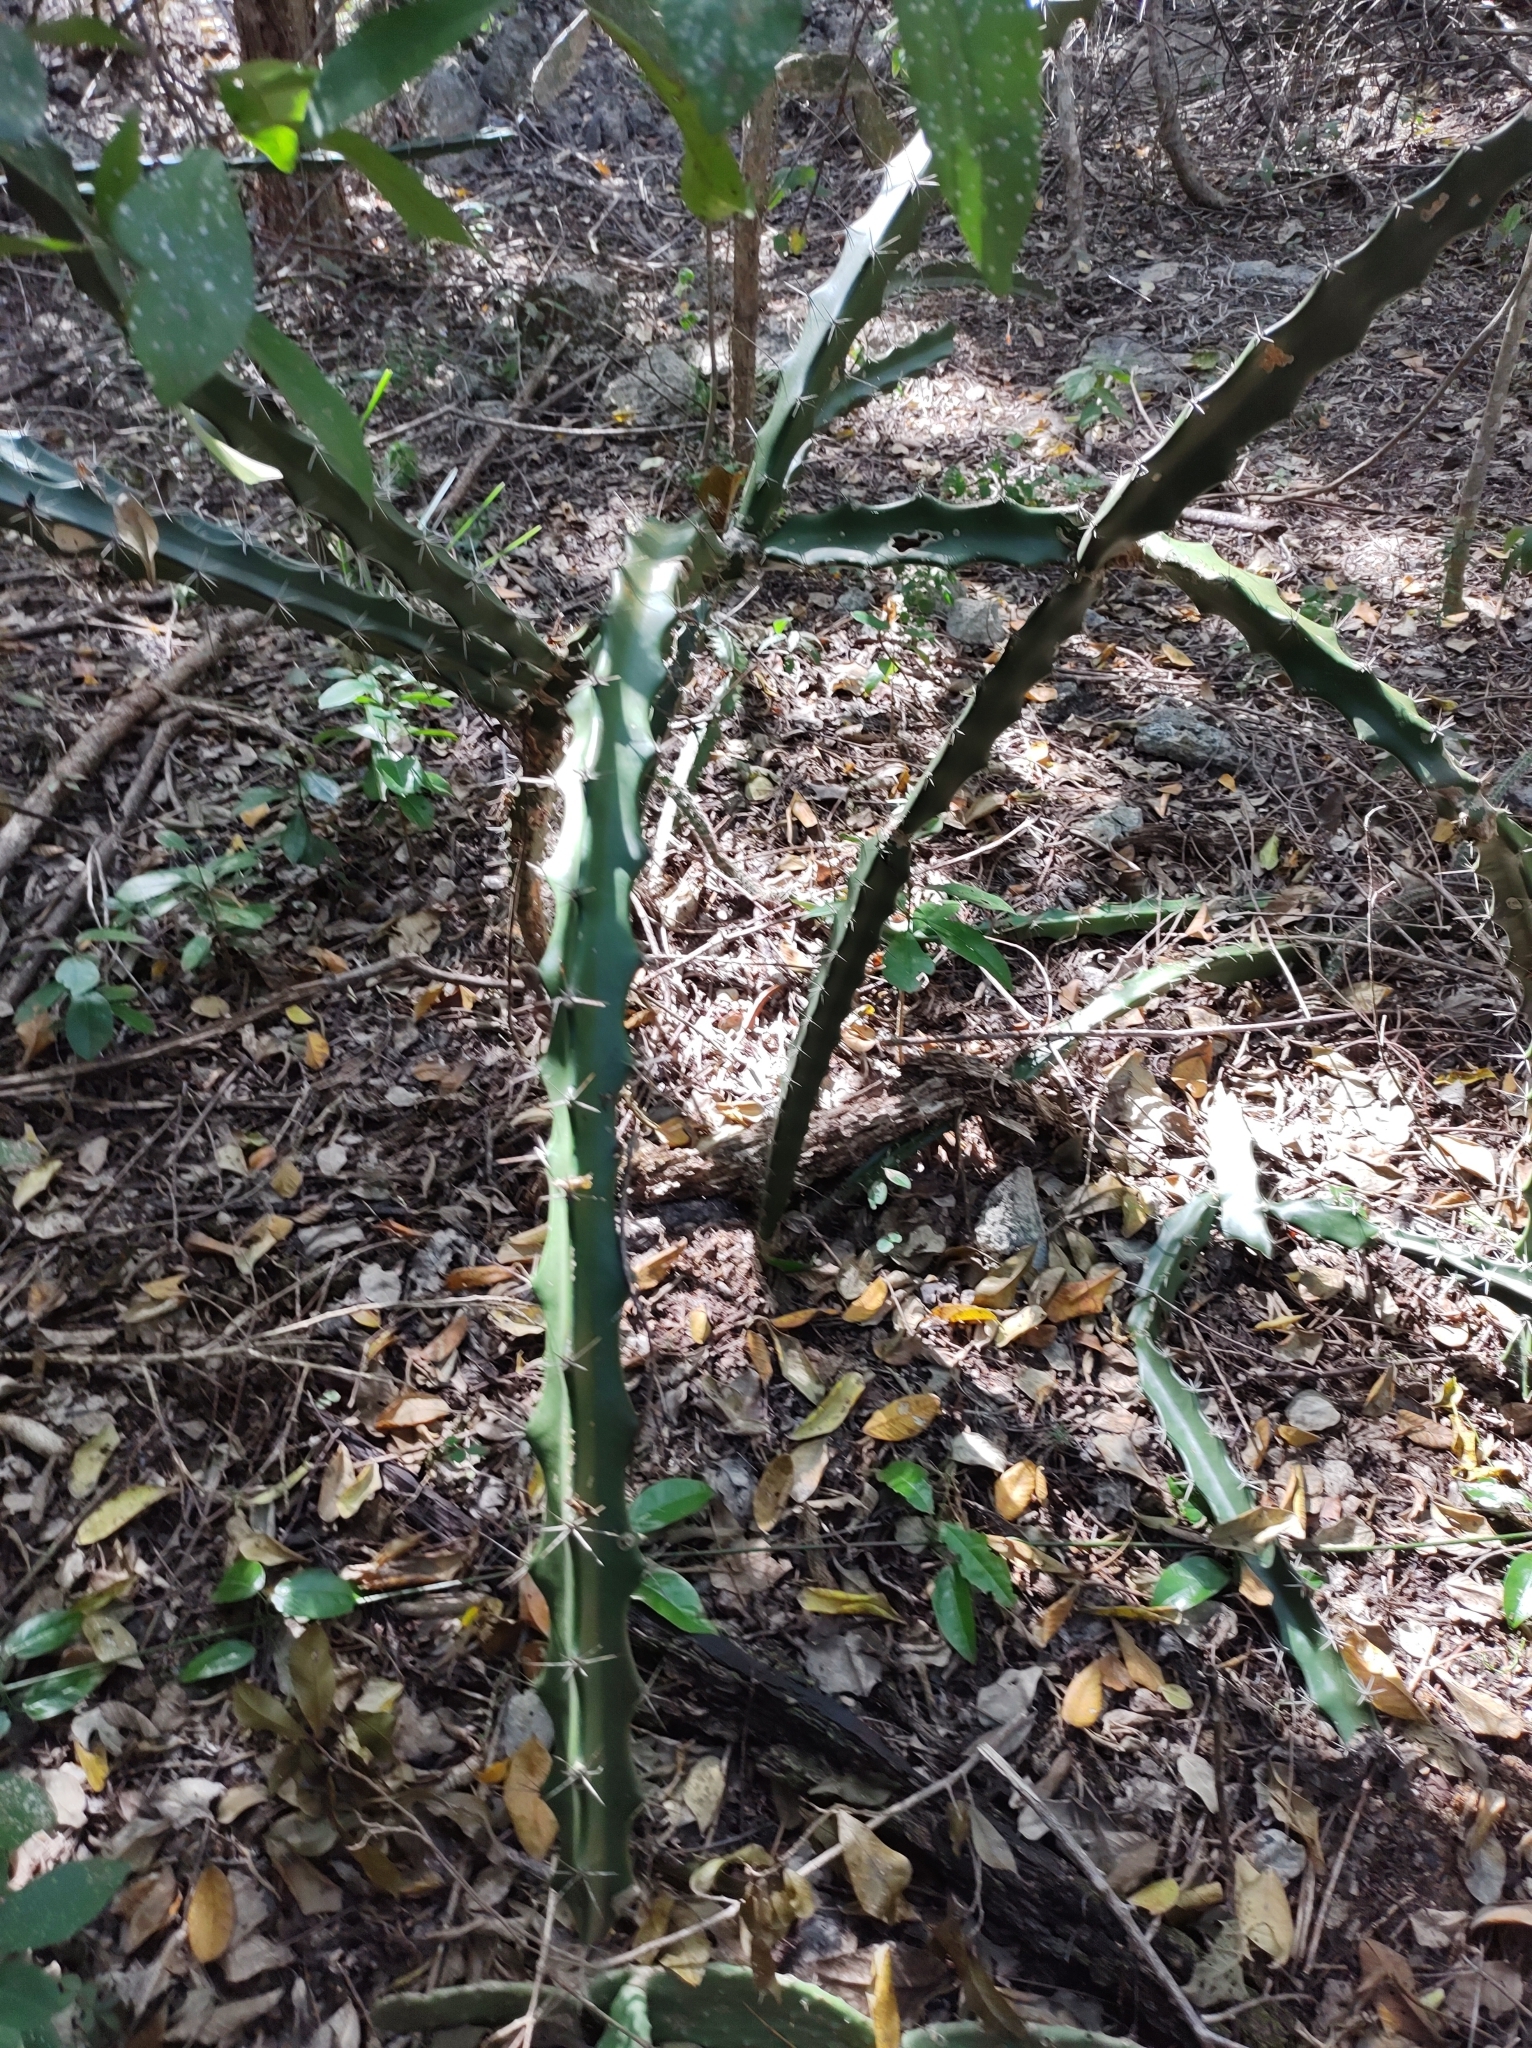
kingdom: Plantae
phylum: Tracheophyta
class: Magnoliopsida
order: Caryophyllales
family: Cactaceae
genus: Acanthocereus
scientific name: Acanthocereus tetragonus
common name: Triangle cactus
